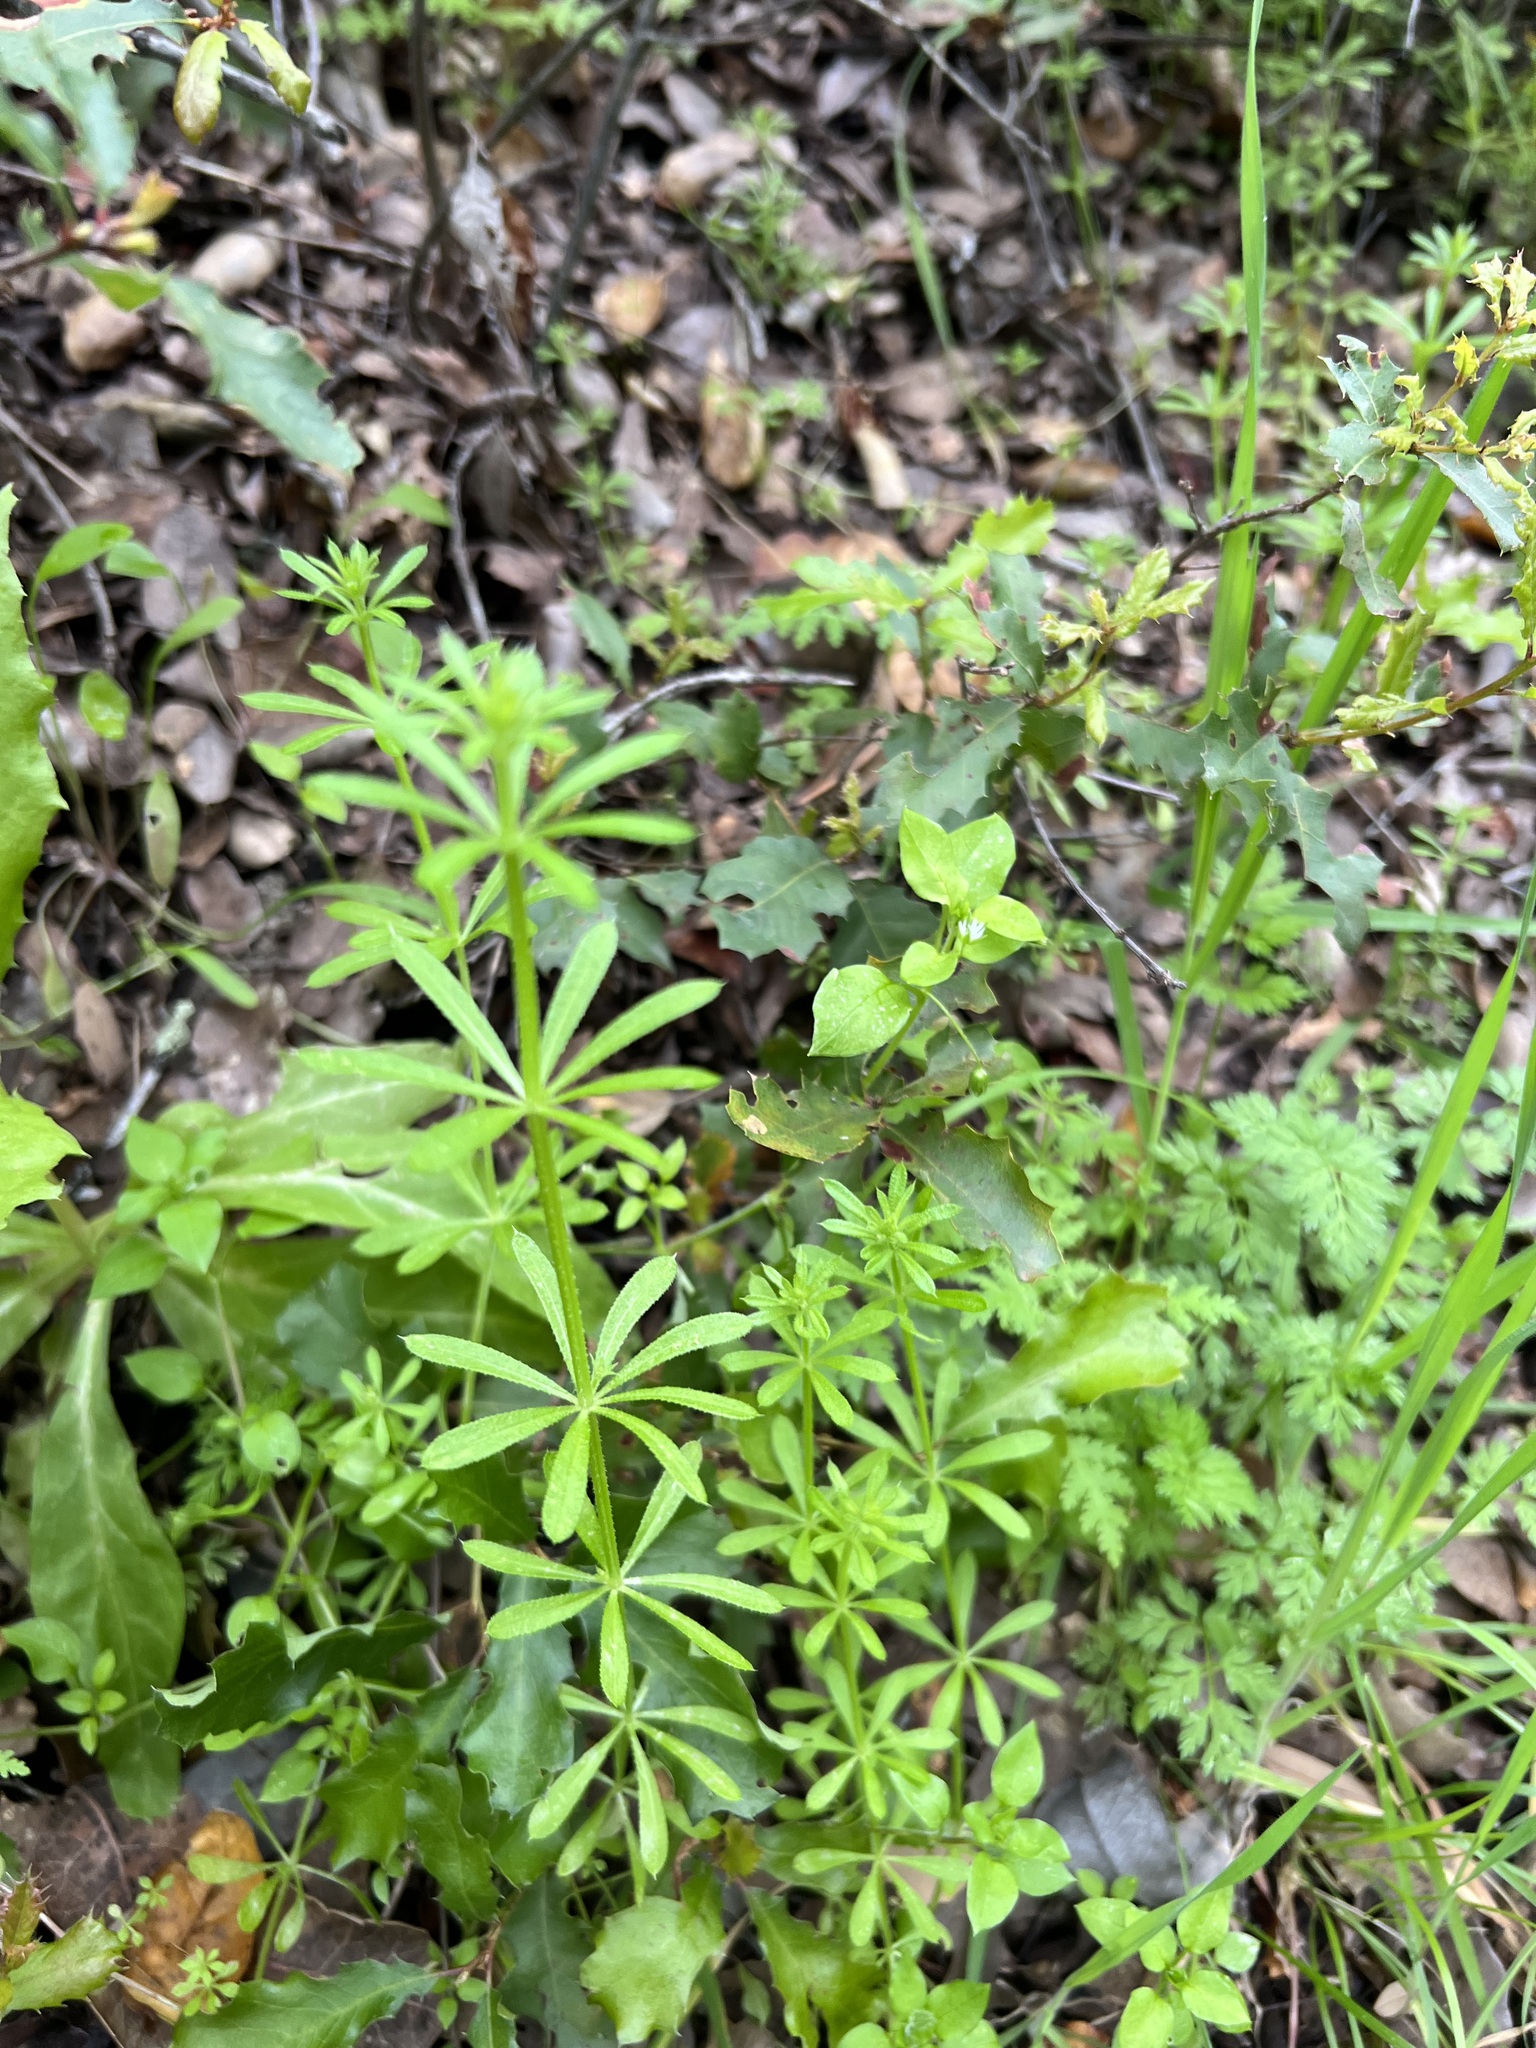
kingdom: Plantae
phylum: Tracheophyta
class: Magnoliopsida
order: Gentianales
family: Rubiaceae
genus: Galium
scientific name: Galium aparine
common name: Cleavers
